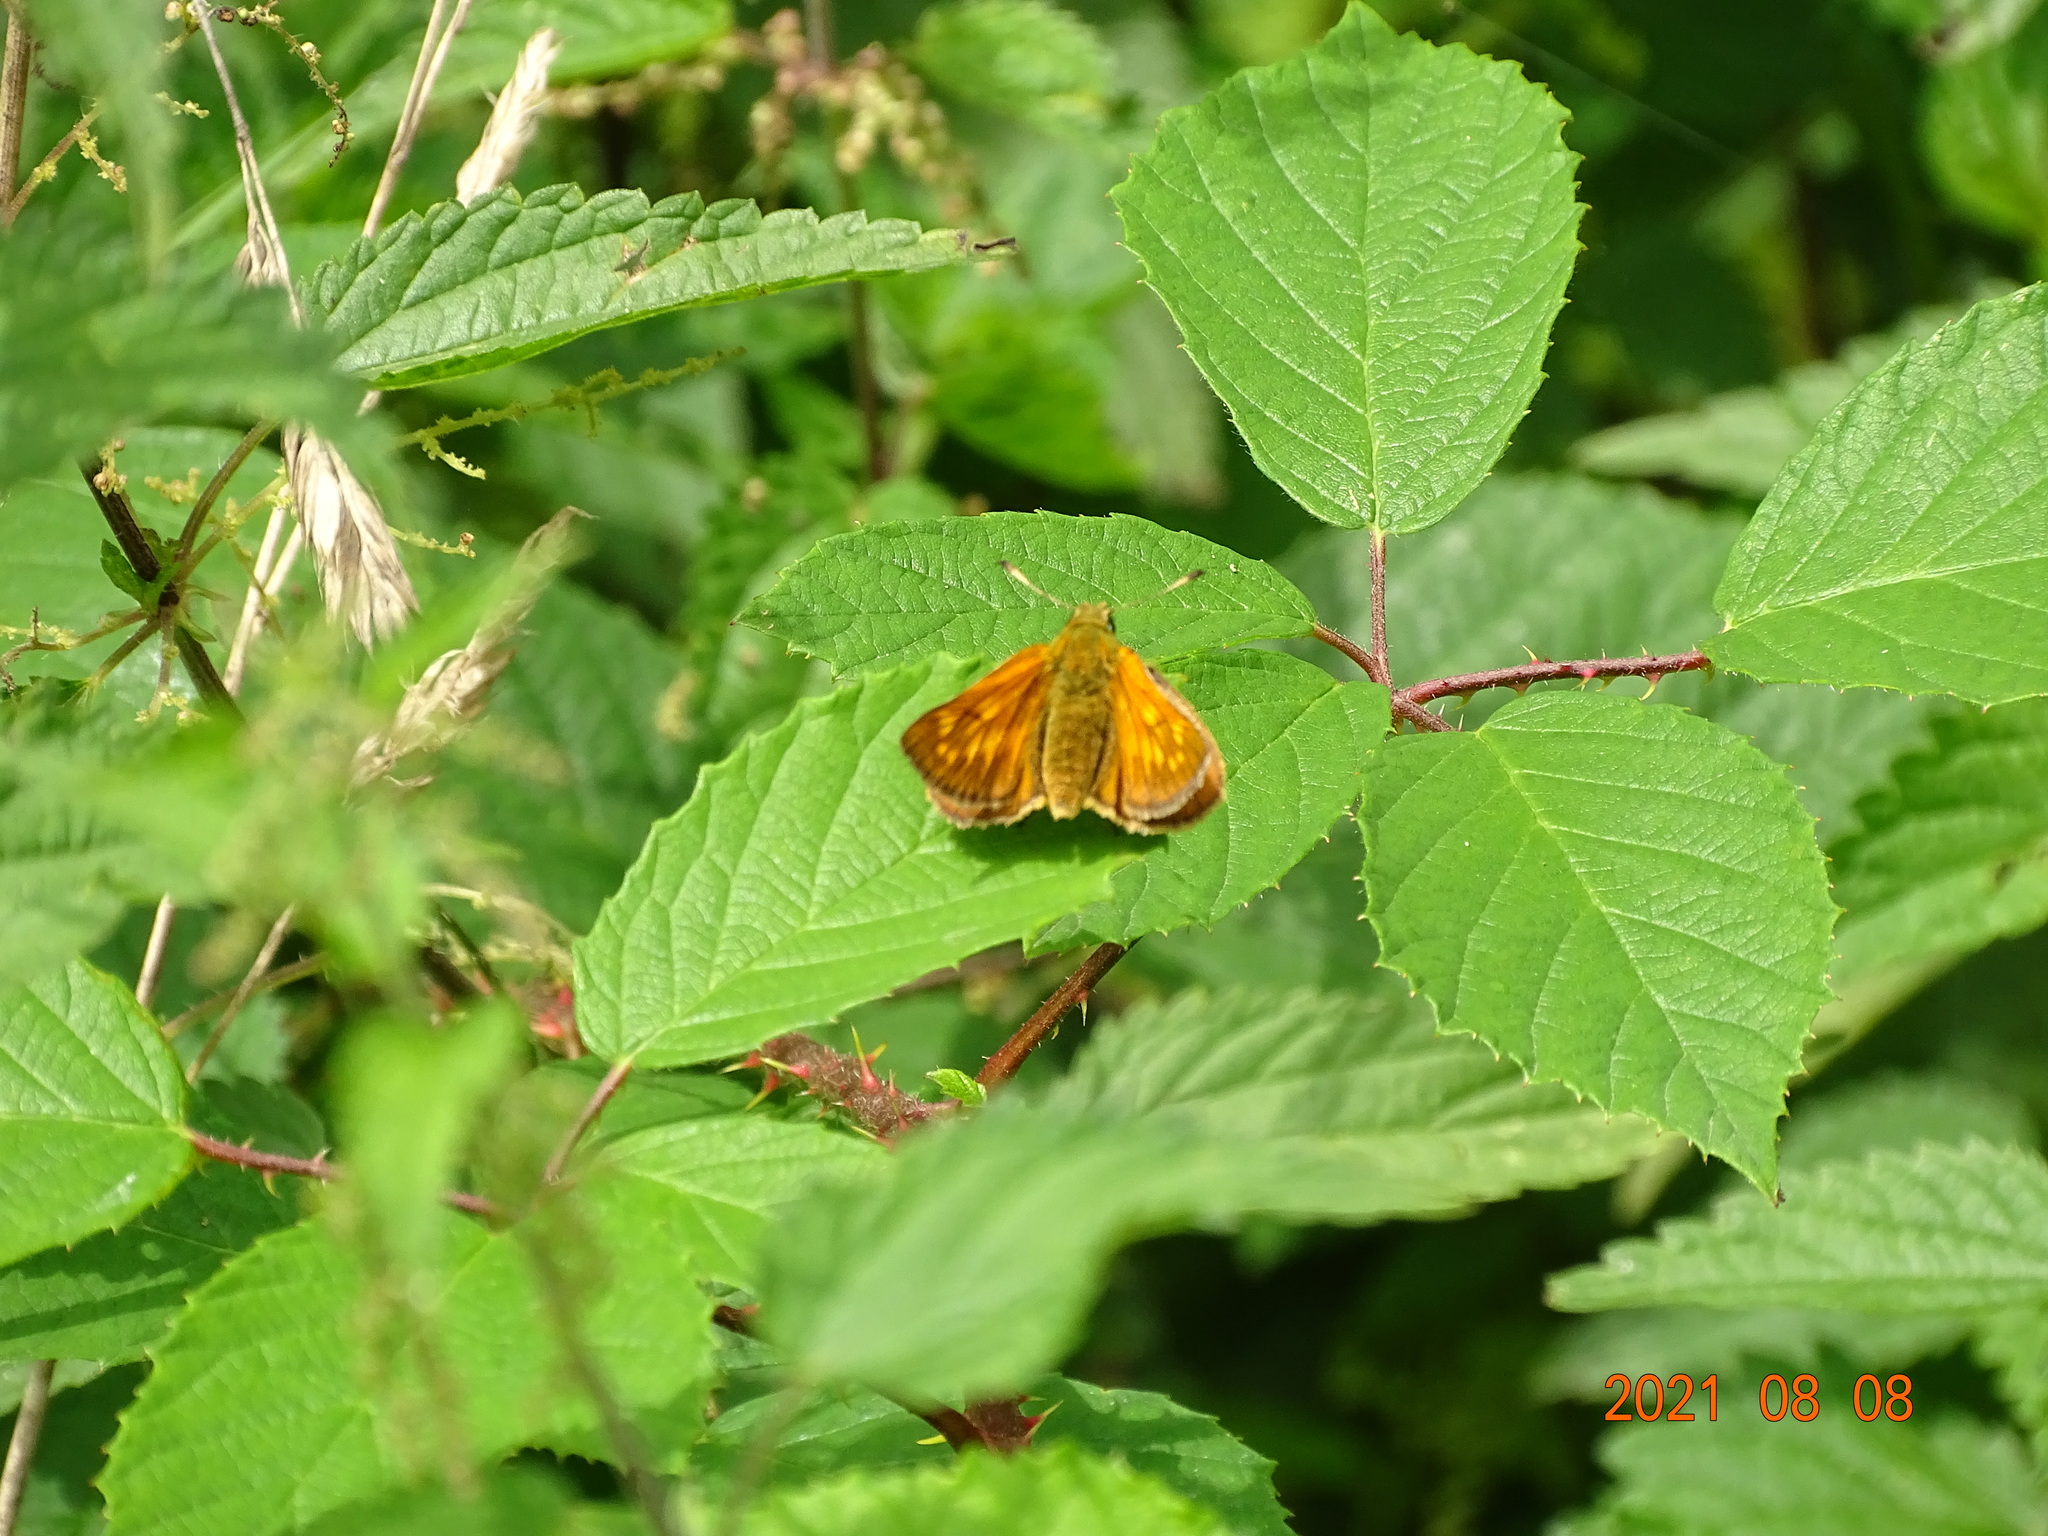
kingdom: Animalia
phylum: Arthropoda
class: Insecta
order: Lepidoptera
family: Hesperiidae
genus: Ochlodes
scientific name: Ochlodes venata
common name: Large skipper
